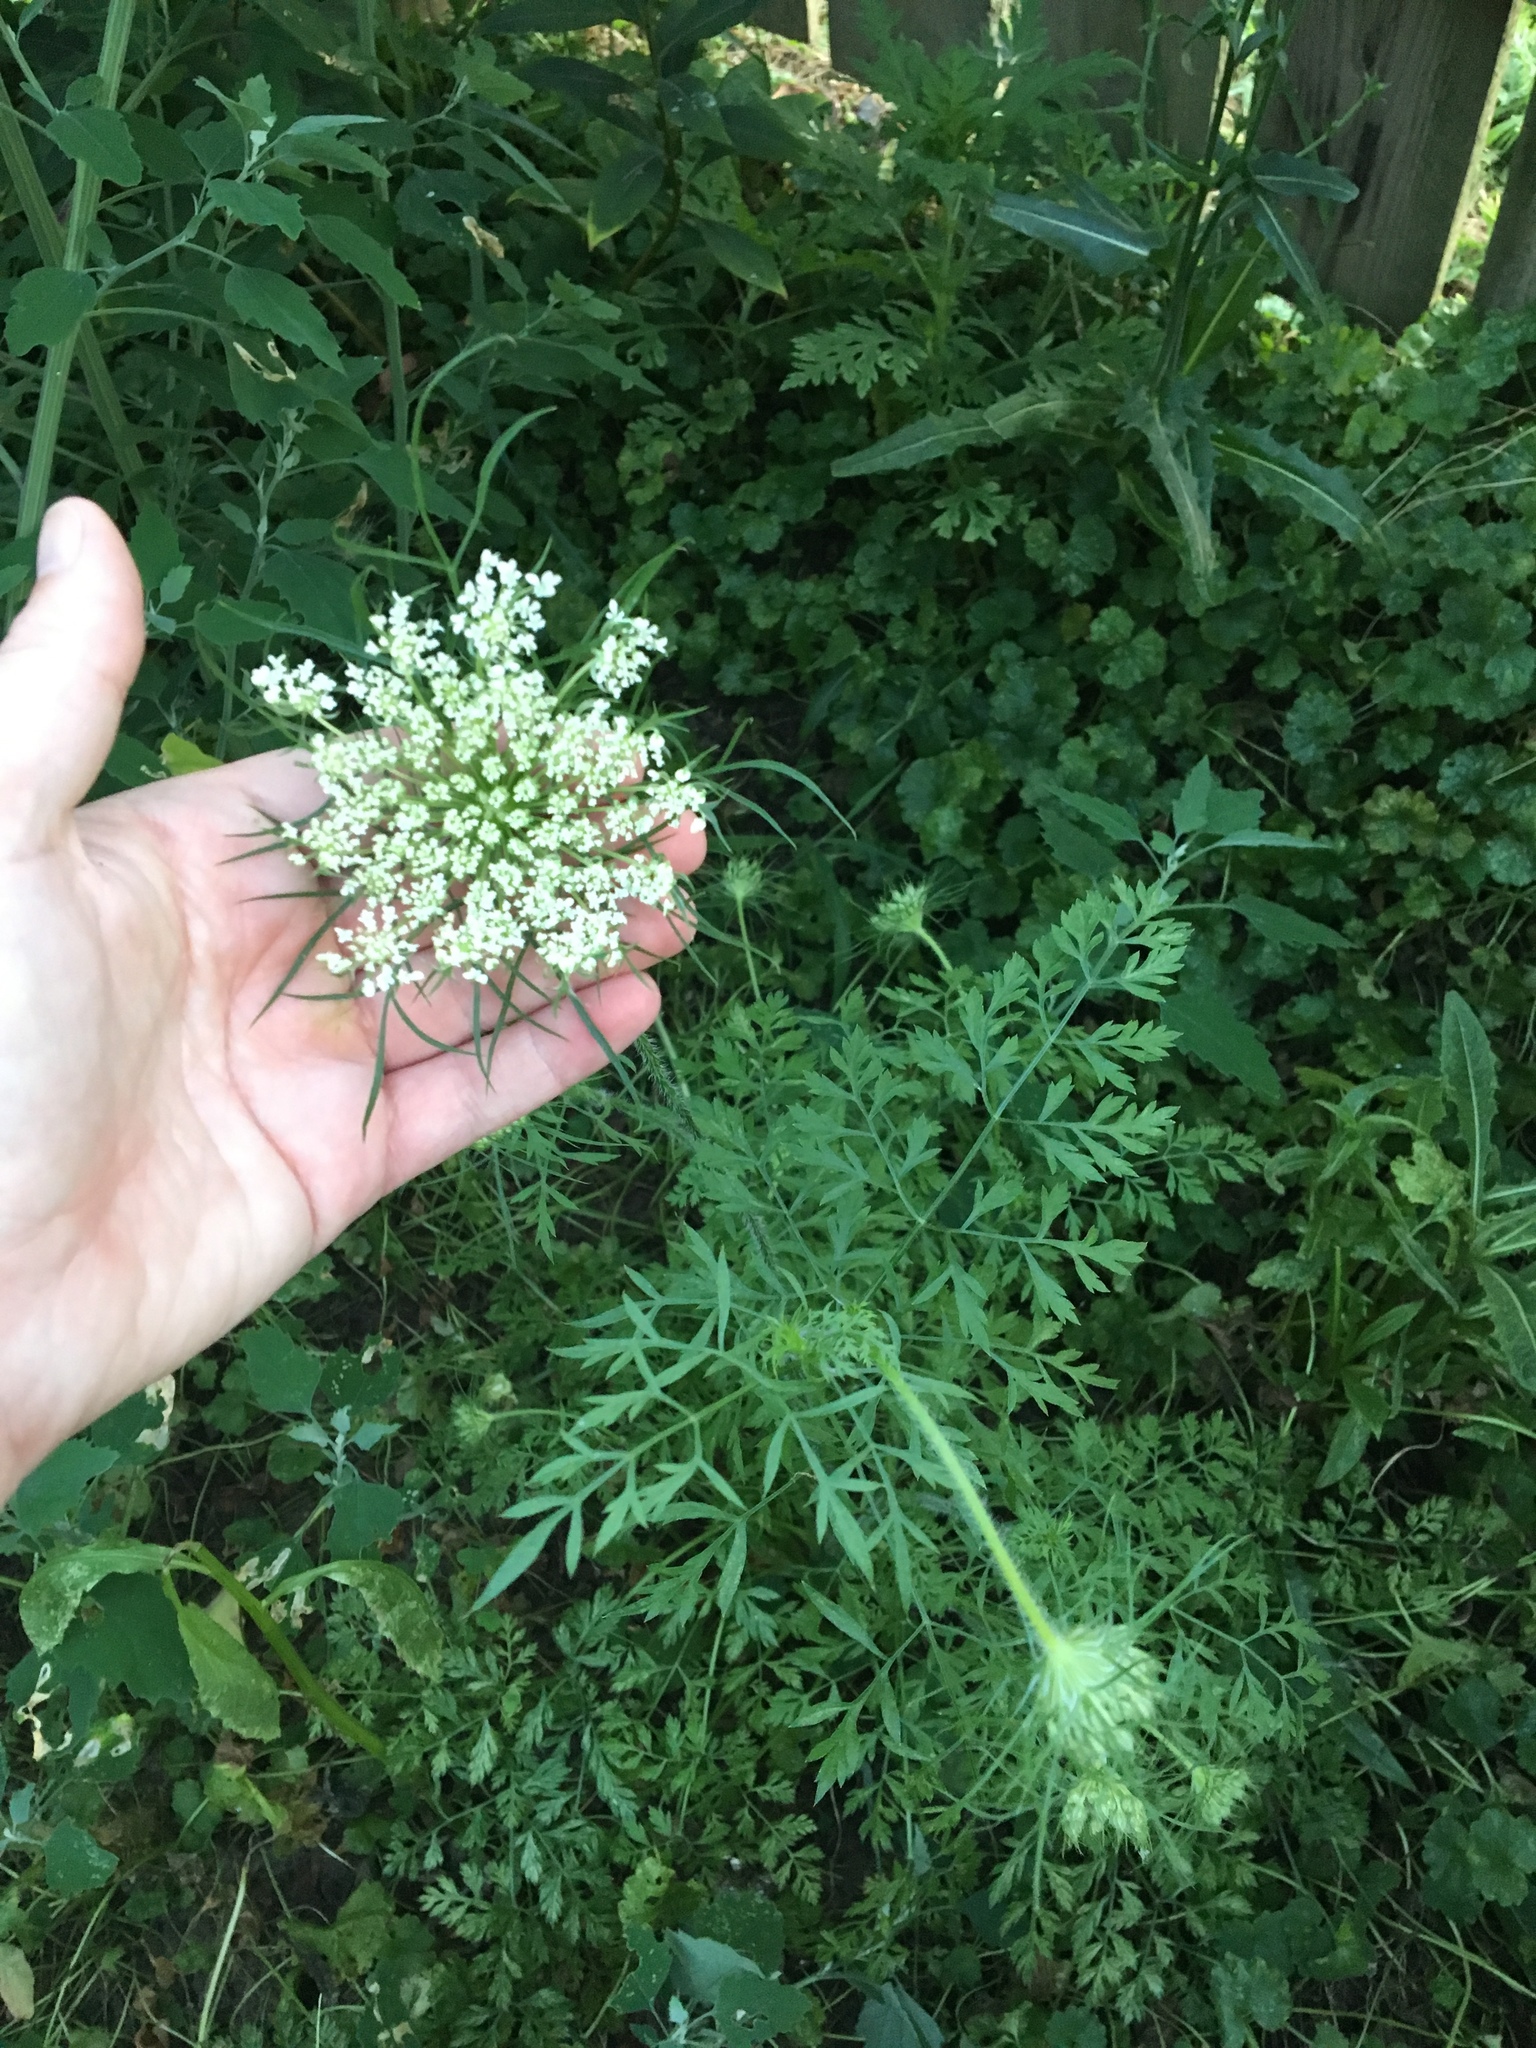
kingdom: Plantae
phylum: Tracheophyta
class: Magnoliopsida
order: Apiales
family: Apiaceae
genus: Daucus
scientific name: Daucus carota
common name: Wild carrot
